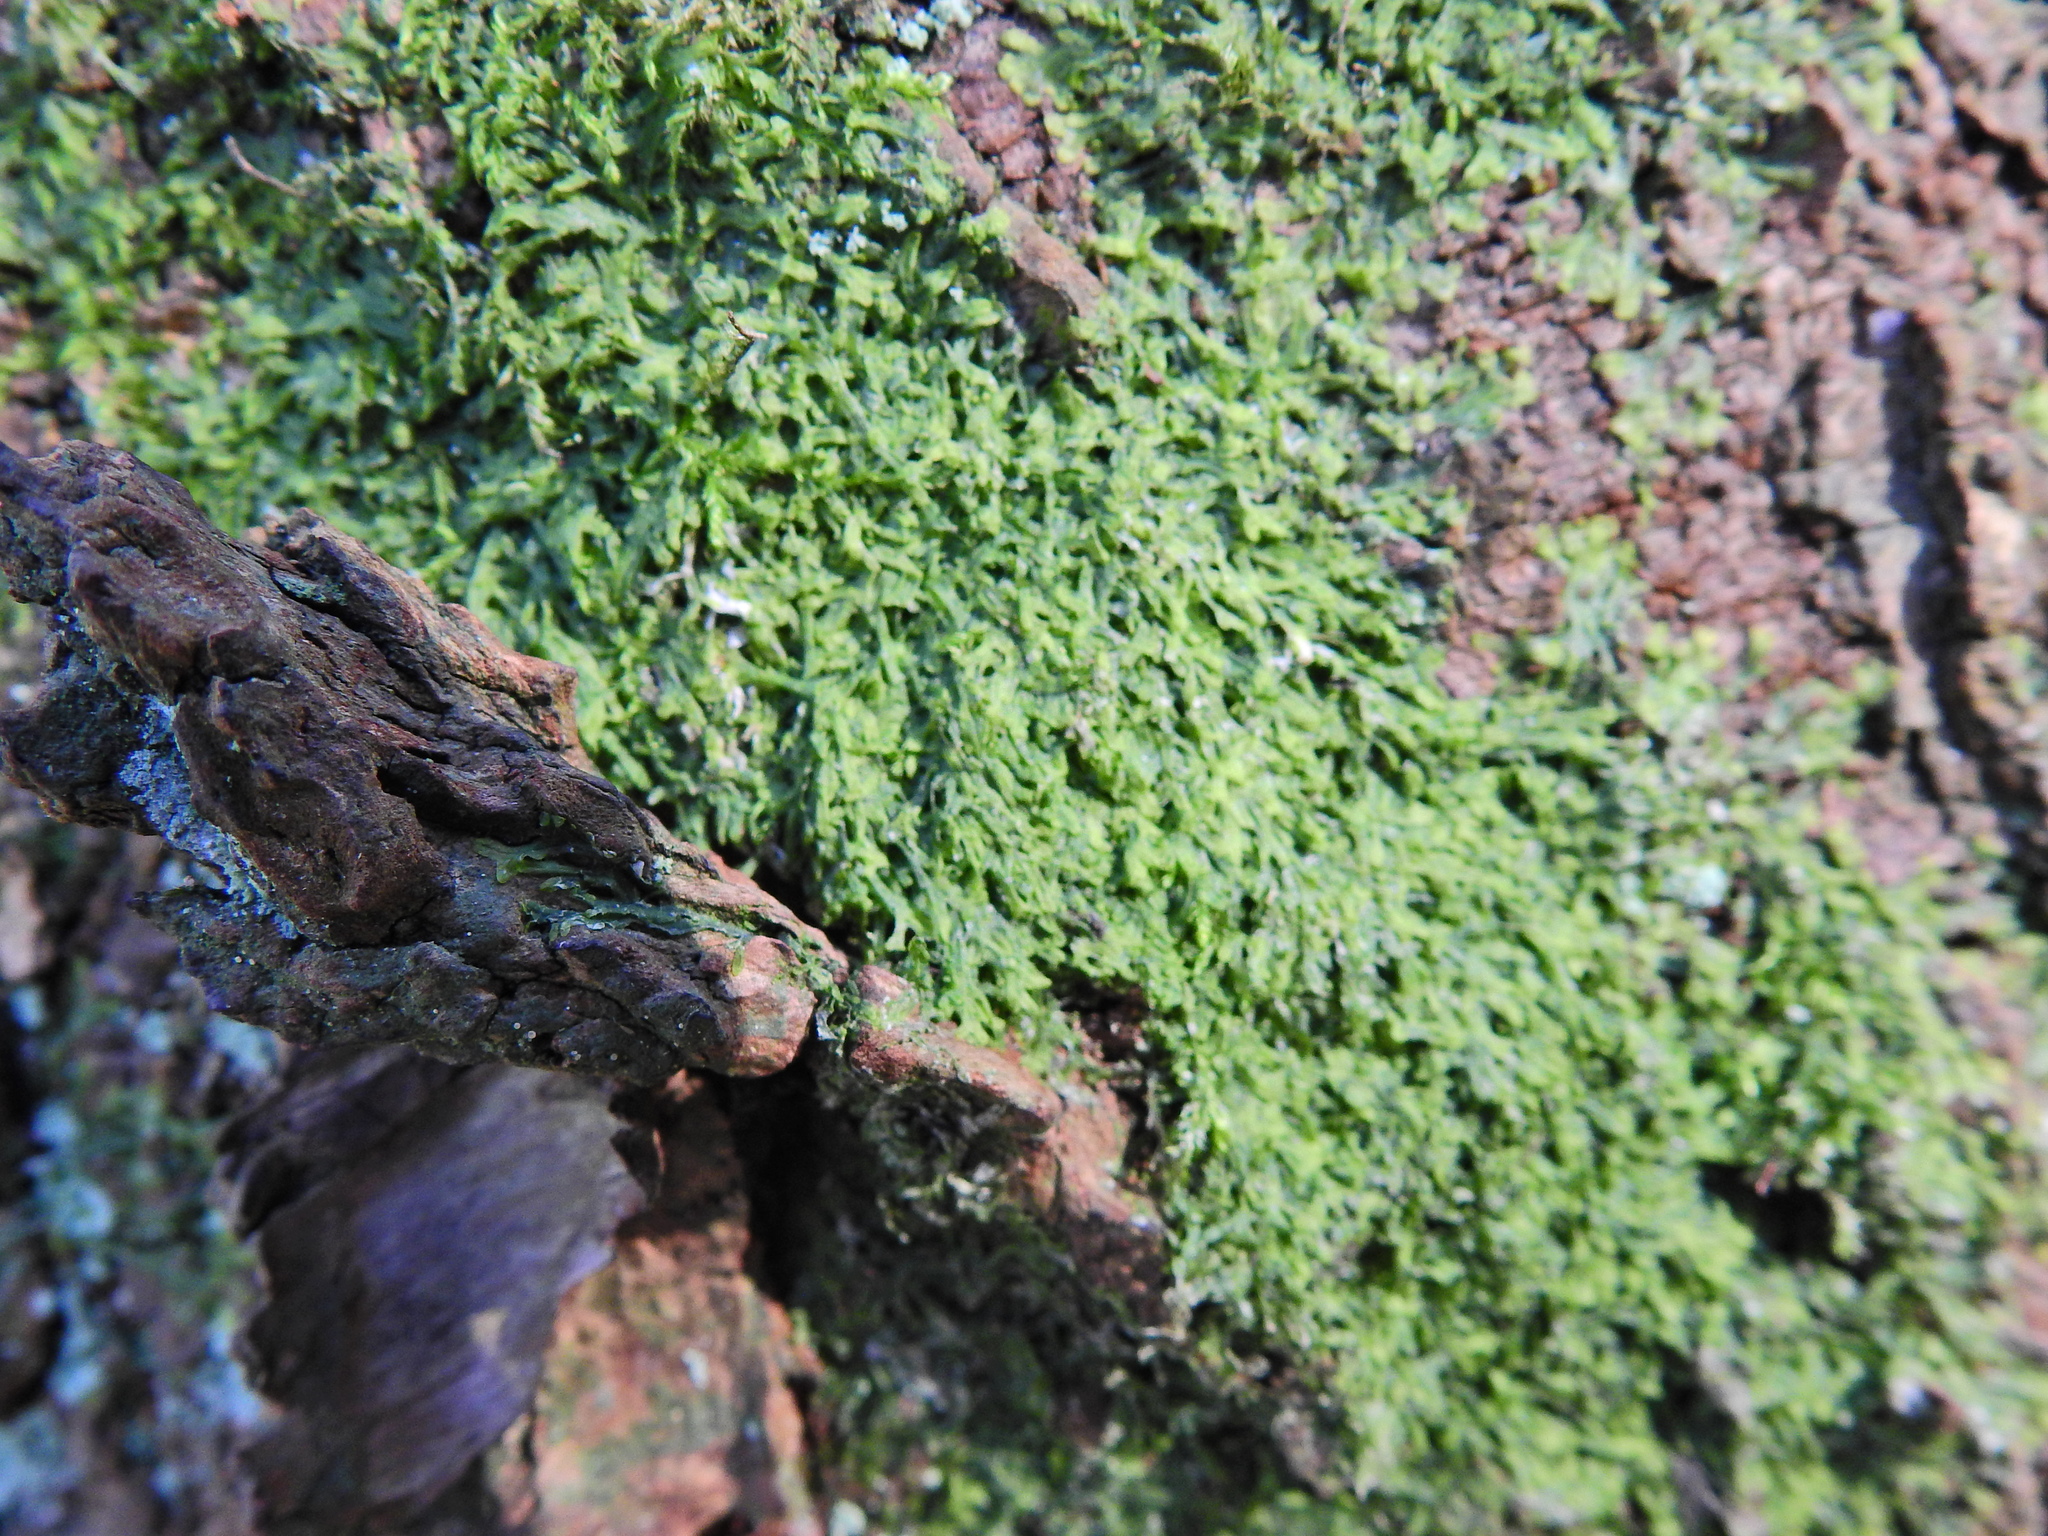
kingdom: Plantae
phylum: Marchantiophyta
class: Jungermanniopsida
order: Metzgeriales
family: Metzgeriaceae
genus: Metzgeria
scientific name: Metzgeria furcata
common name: Forked veilwort
